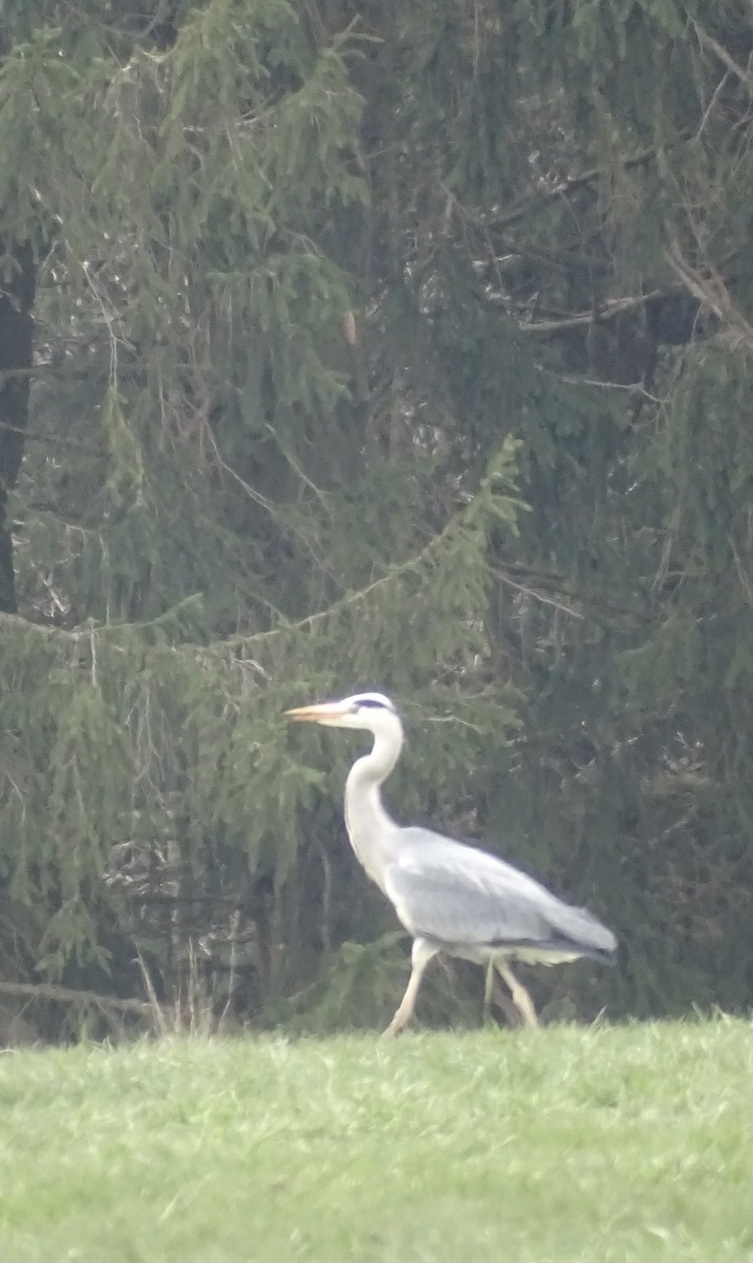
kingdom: Animalia
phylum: Chordata
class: Aves
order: Pelecaniformes
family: Ardeidae
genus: Ardea
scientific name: Ardea cinerea
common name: Grey heron
